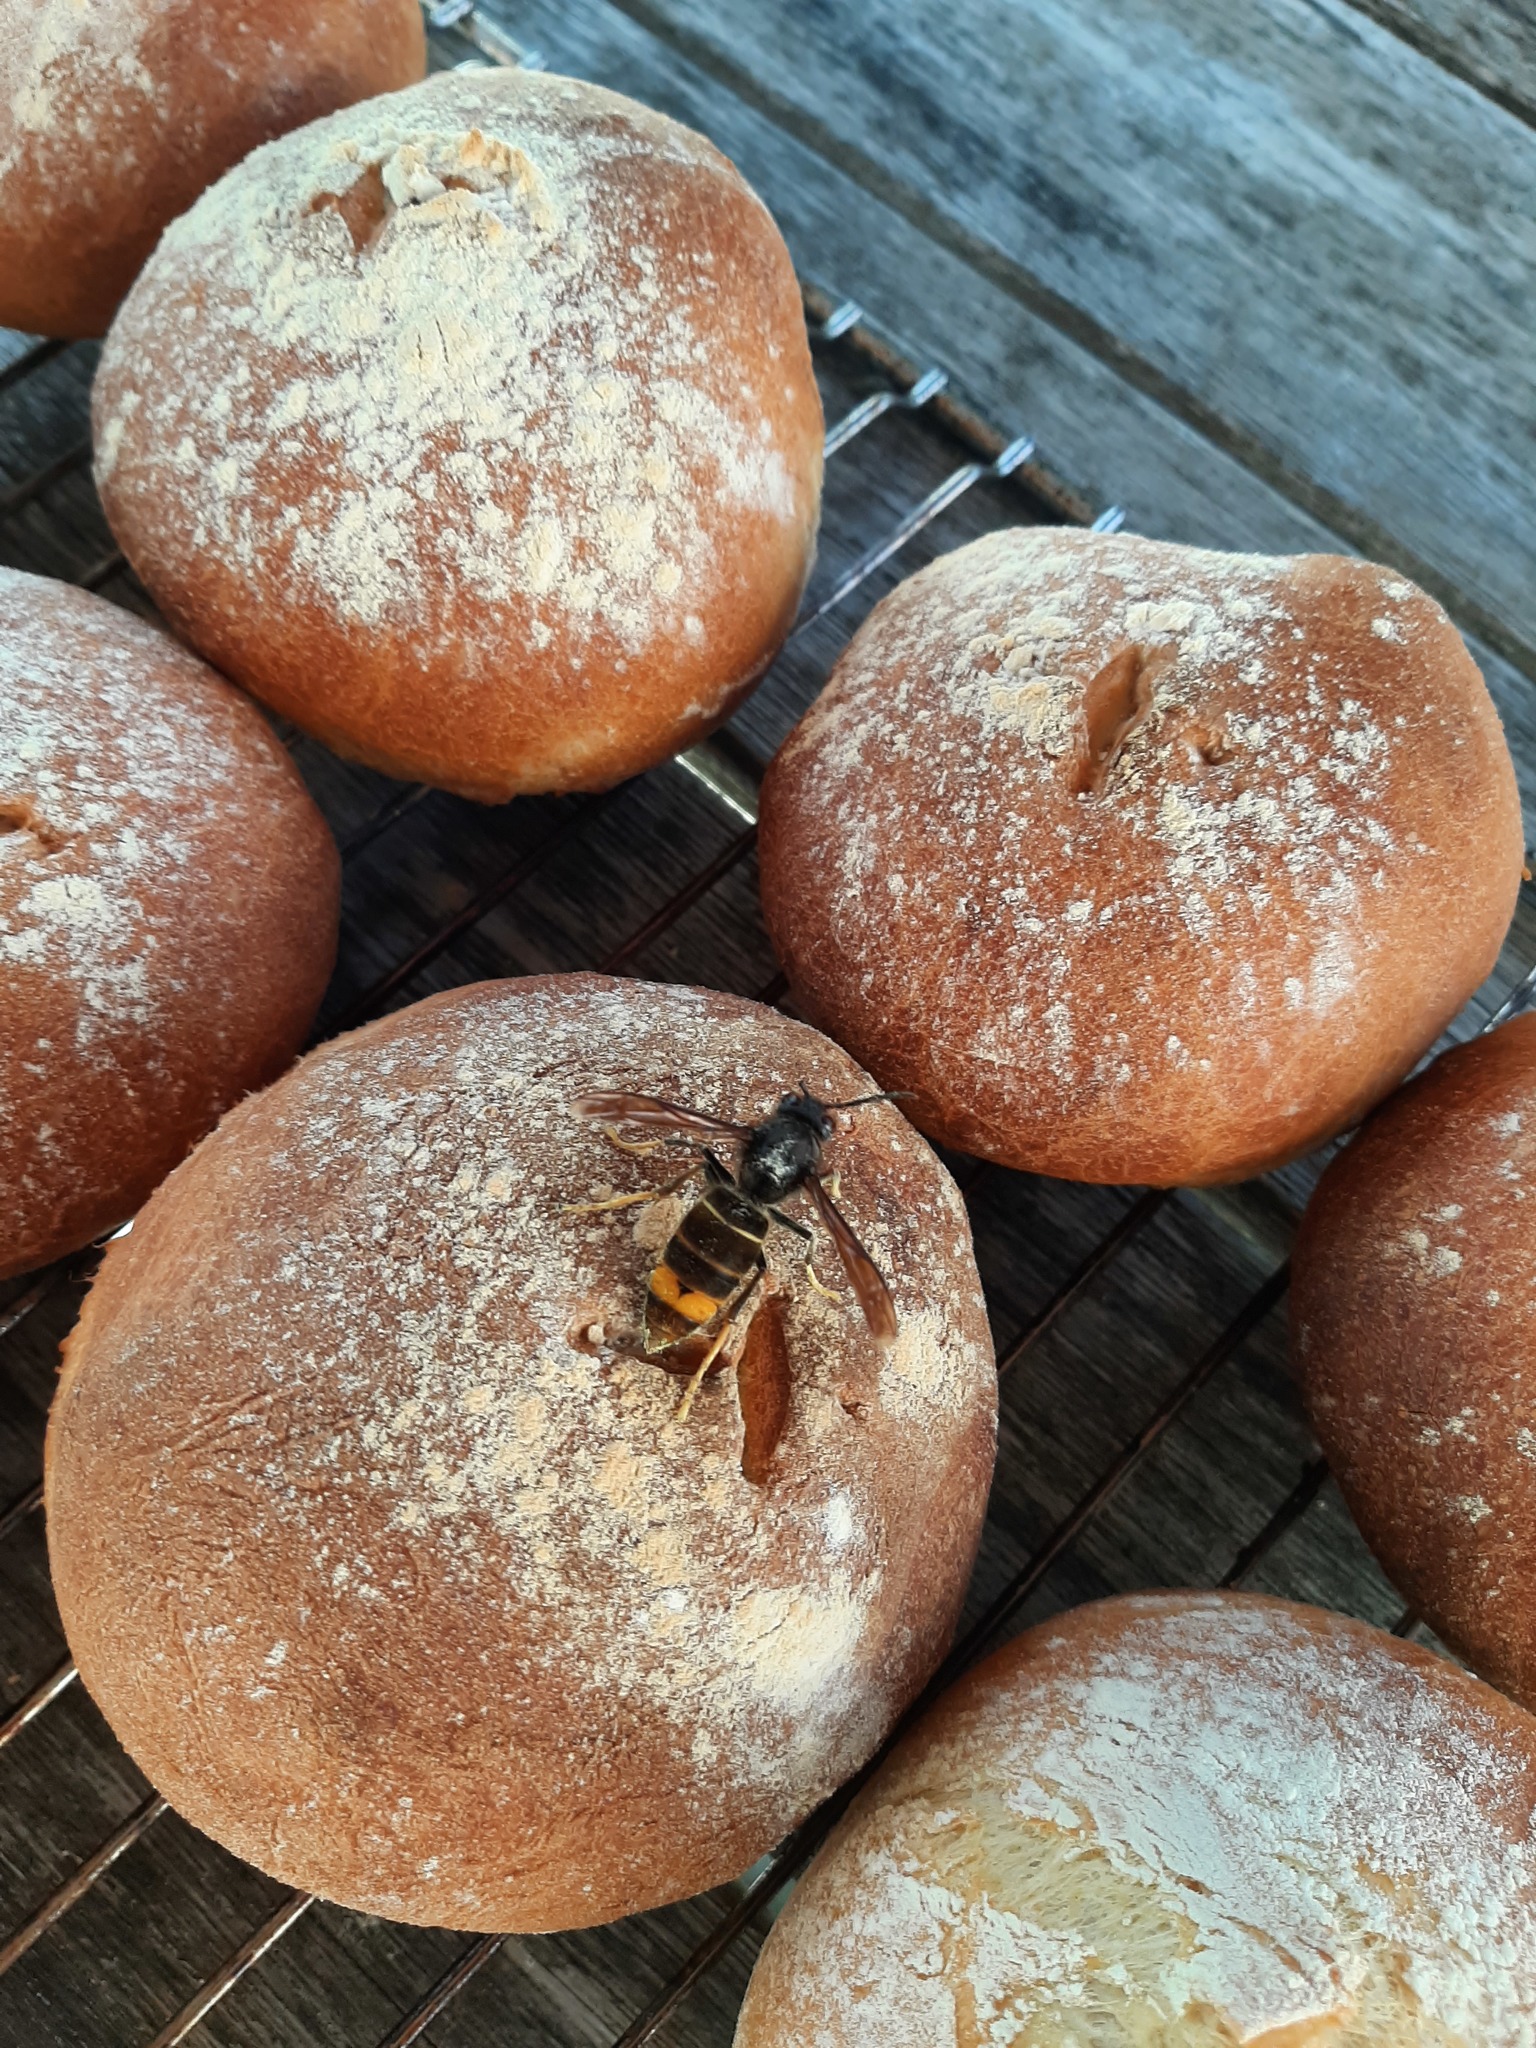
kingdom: Animalia
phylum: Arthropoda
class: Insecta
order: Hymenoptera
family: Vespidae
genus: Vespa
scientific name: Vespa velutina
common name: Asian hornet
